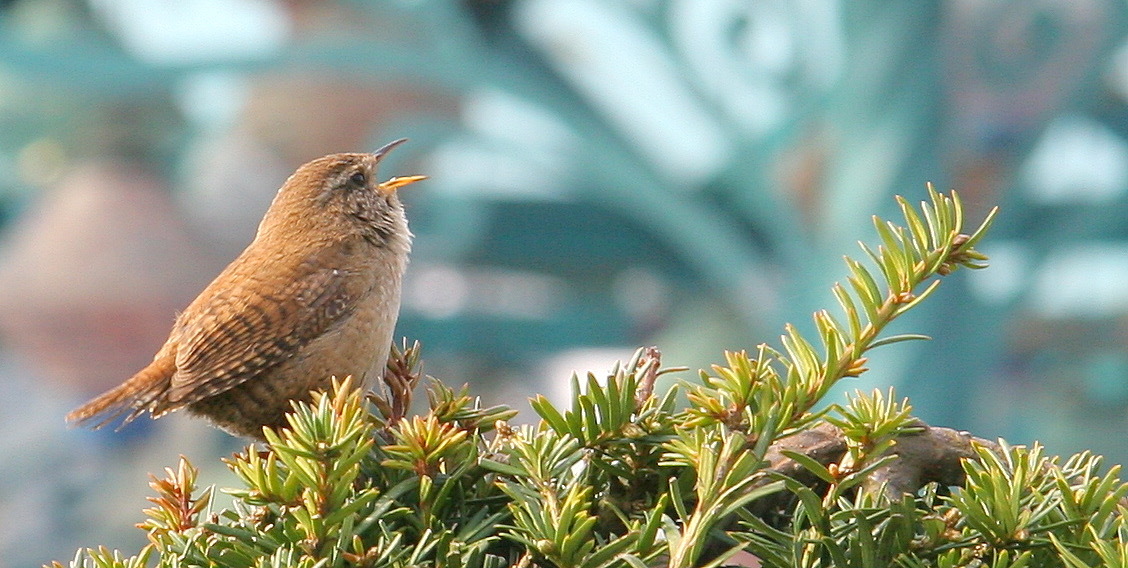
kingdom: Animalia
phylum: Chordata
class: Aves
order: Passeriformes
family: Troglodytidae
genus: Troglodytes
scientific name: Troglodytes troglodytes
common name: Eurasian wren
